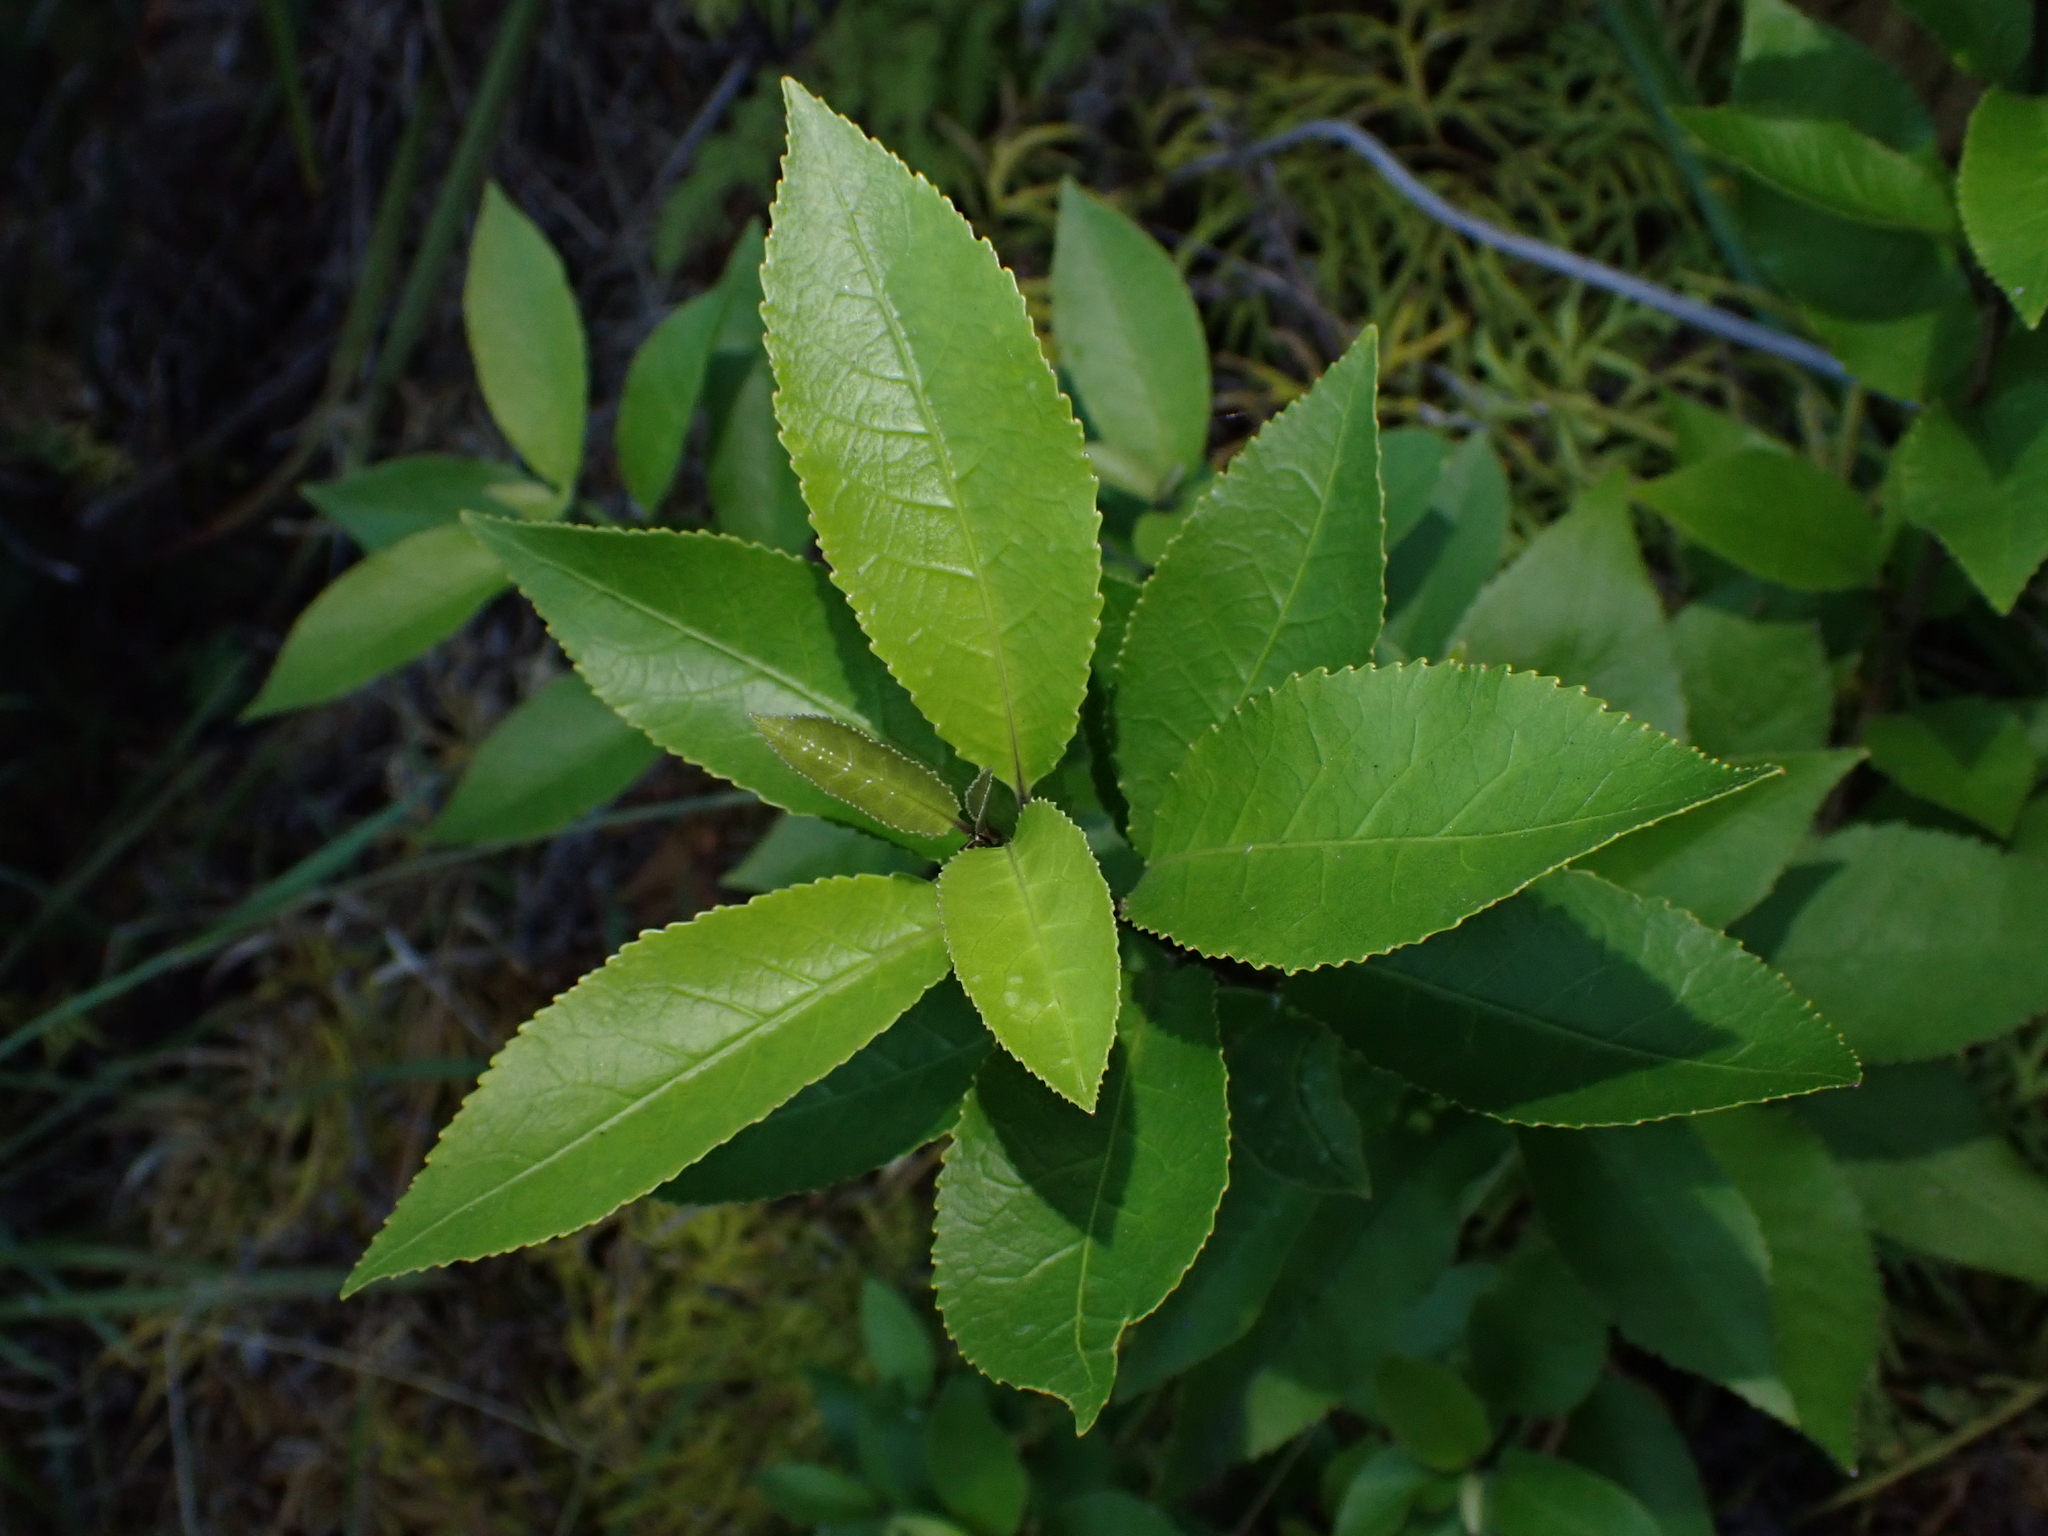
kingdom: Plantae
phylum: Tracheophyta
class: Magnoliopsida
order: Malpighiales
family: Violaceae
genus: Melicytus
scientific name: Melicytus ramiflorus
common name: Mahoe
